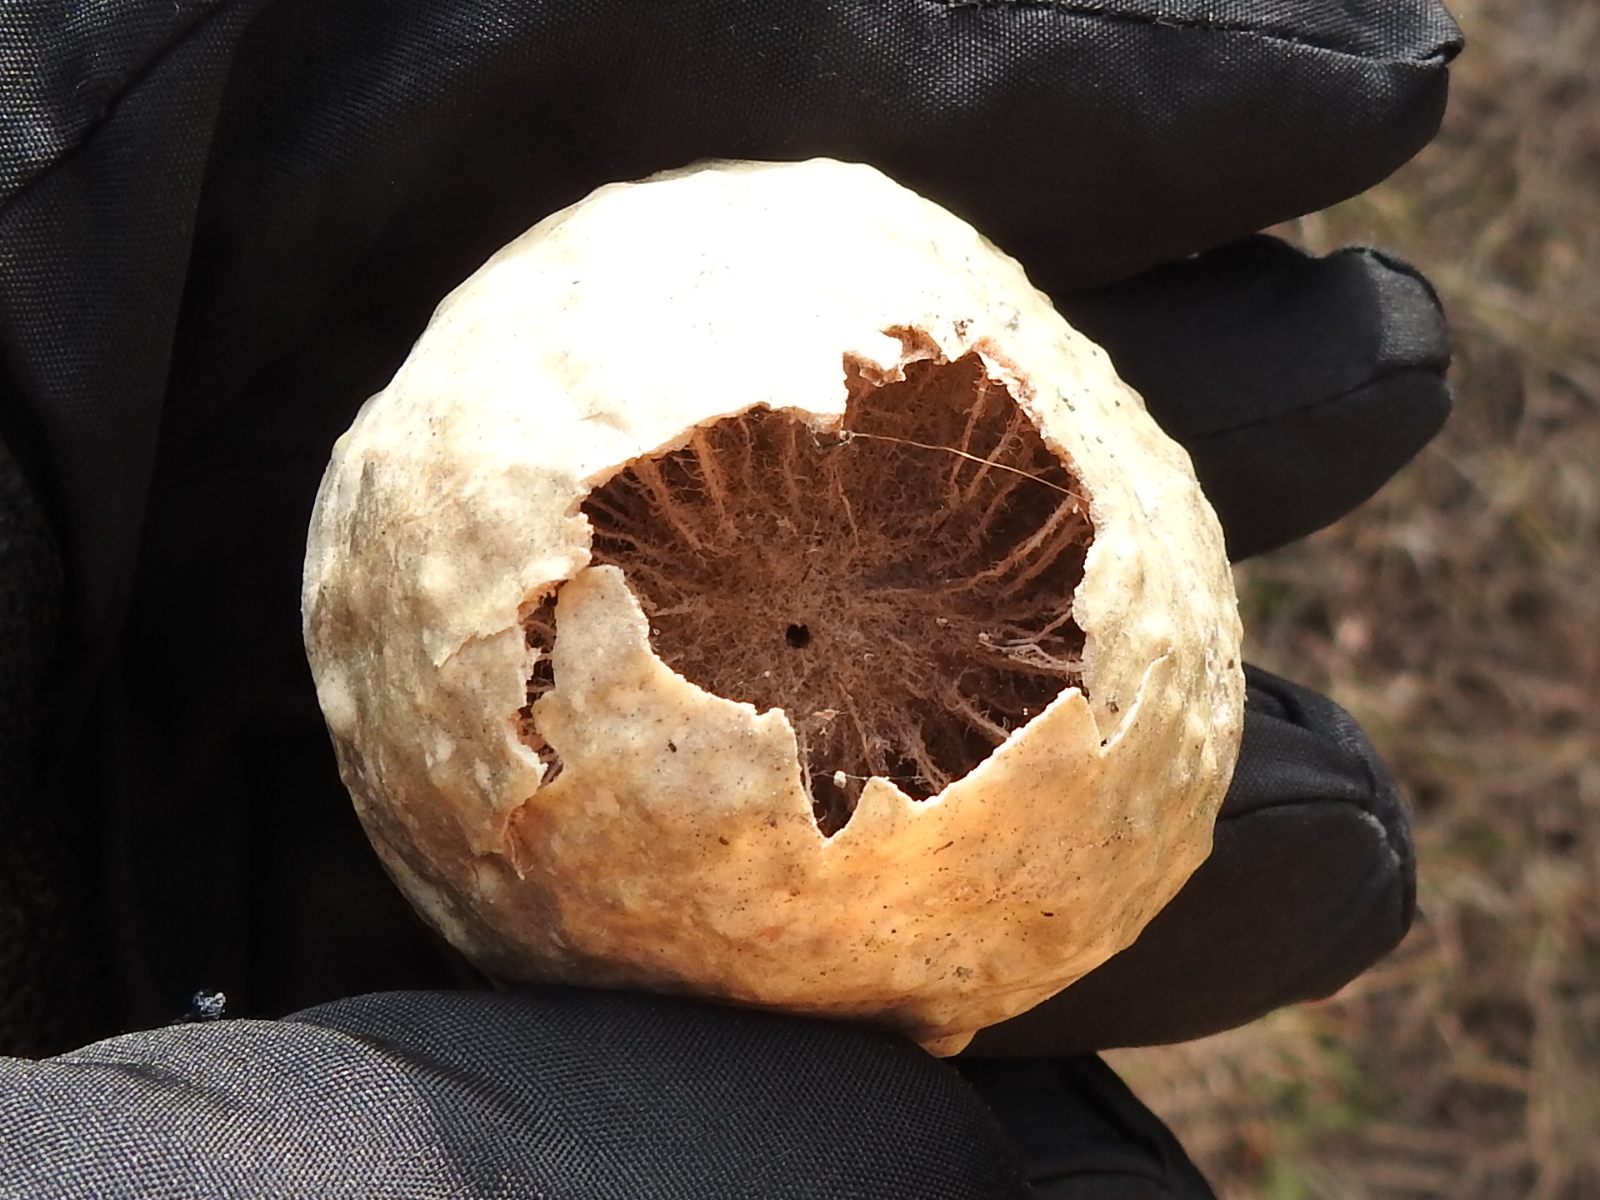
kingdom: Animalia
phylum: Arthropoda
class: Insecta
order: Hymenoptera
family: Cynipidae
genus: Amphibolips
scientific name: Amphibolips
